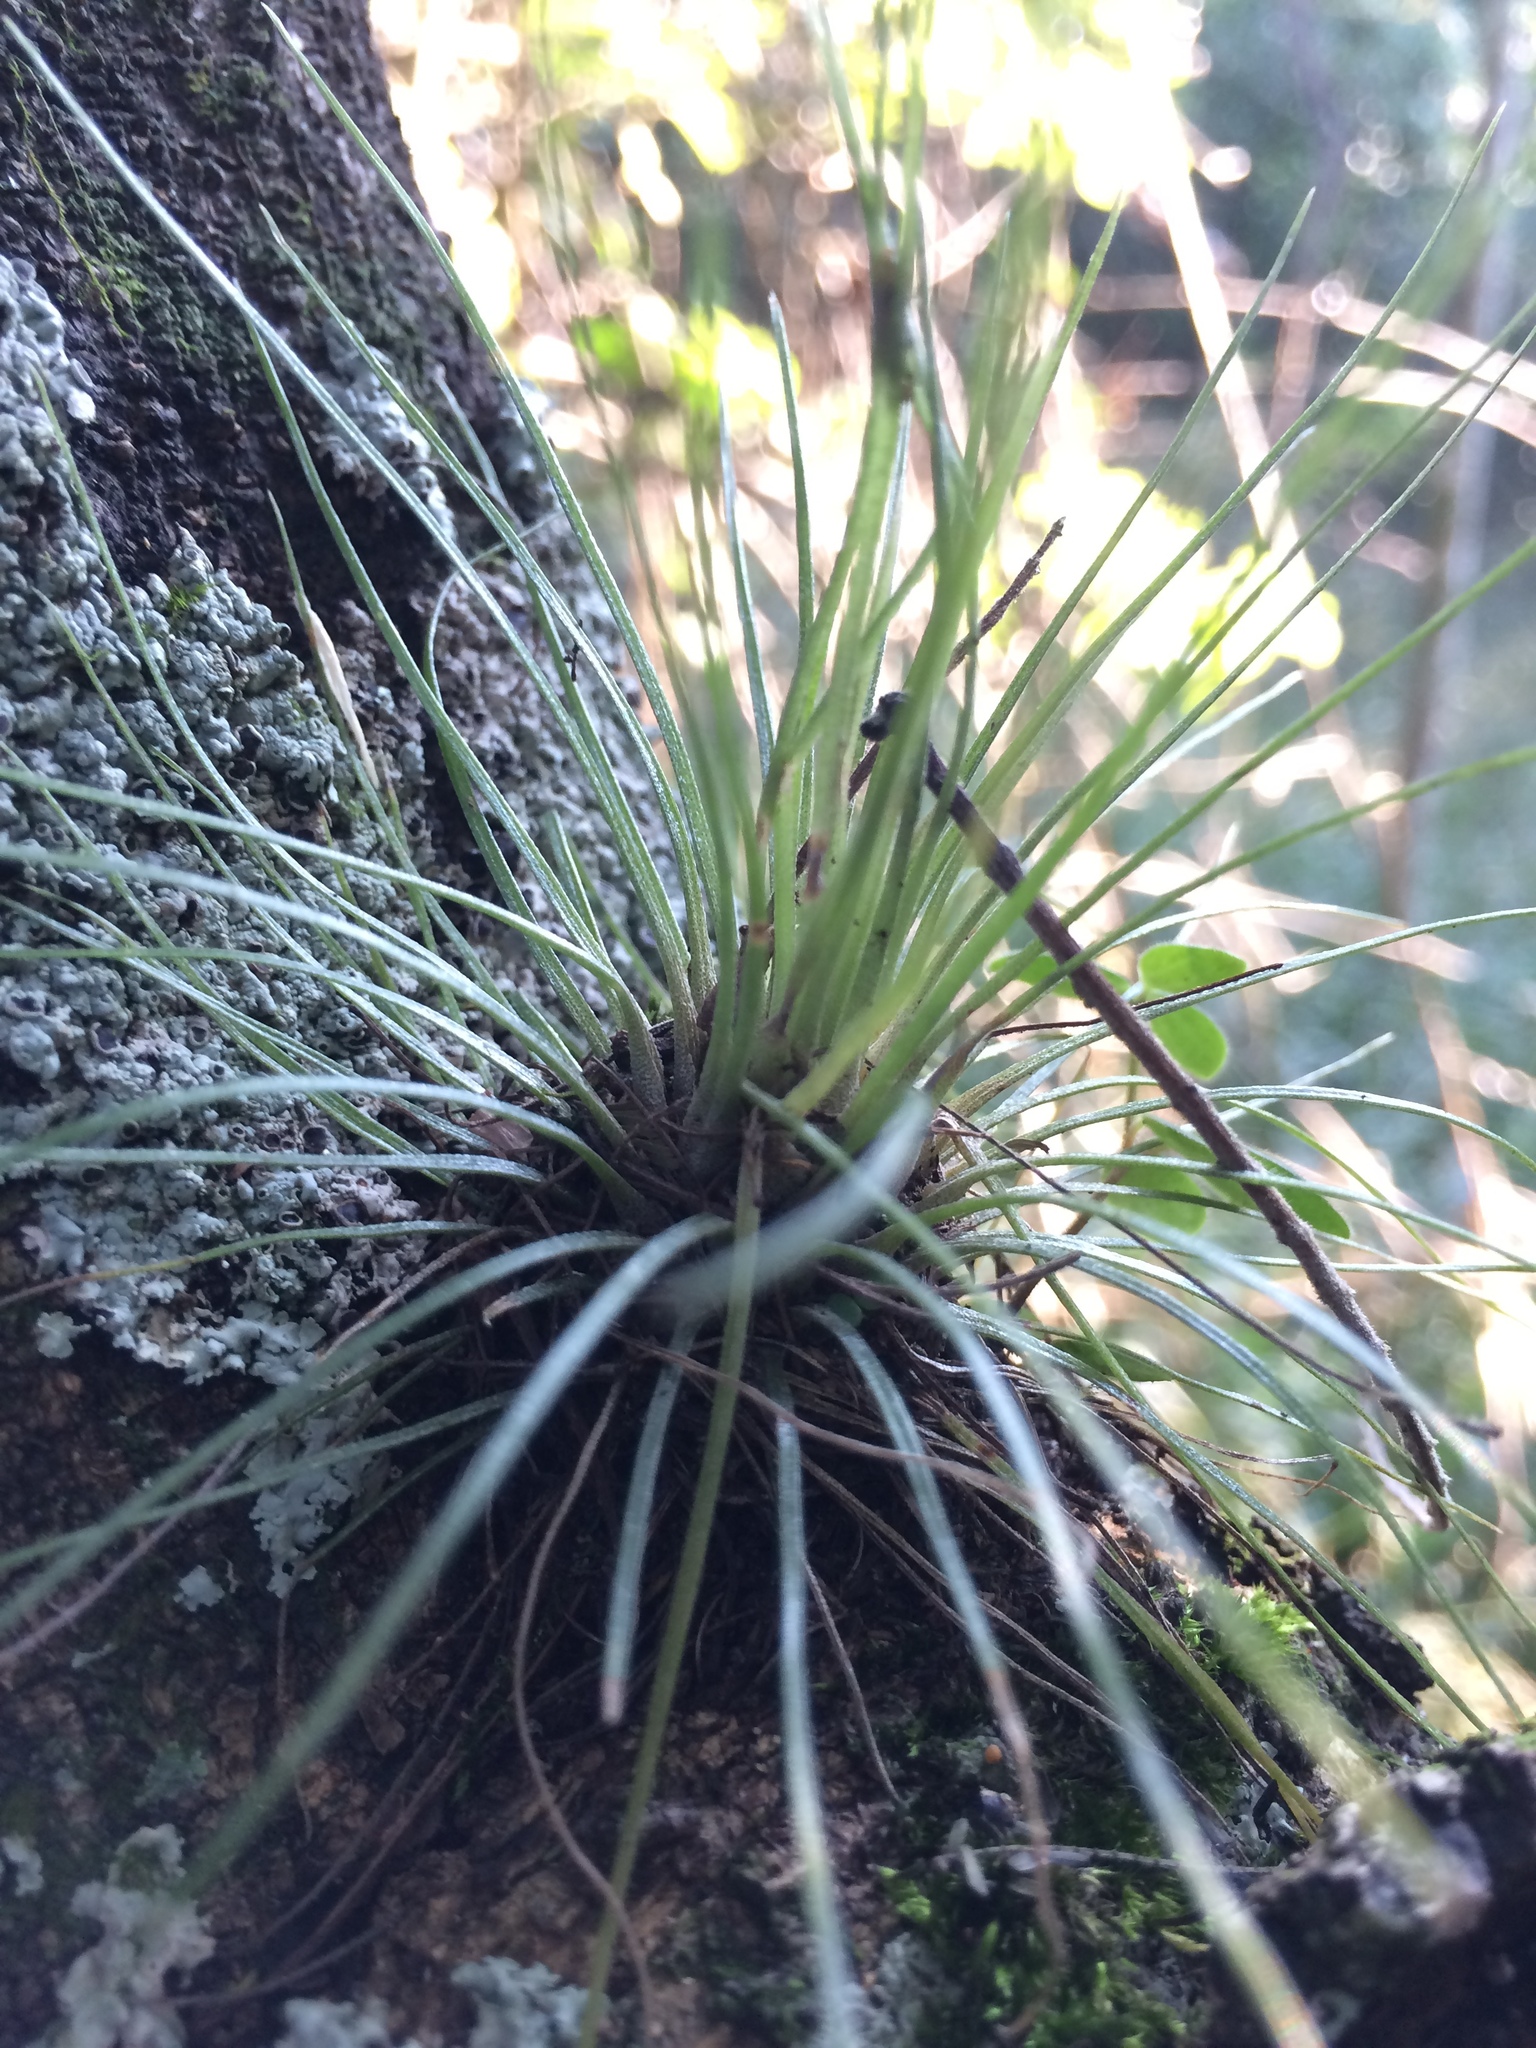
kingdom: Plantae
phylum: Tracheophyta
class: Liliopsida
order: Poales
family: Bromeliaceae
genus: Tillandsia
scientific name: Tillandsia juncea
